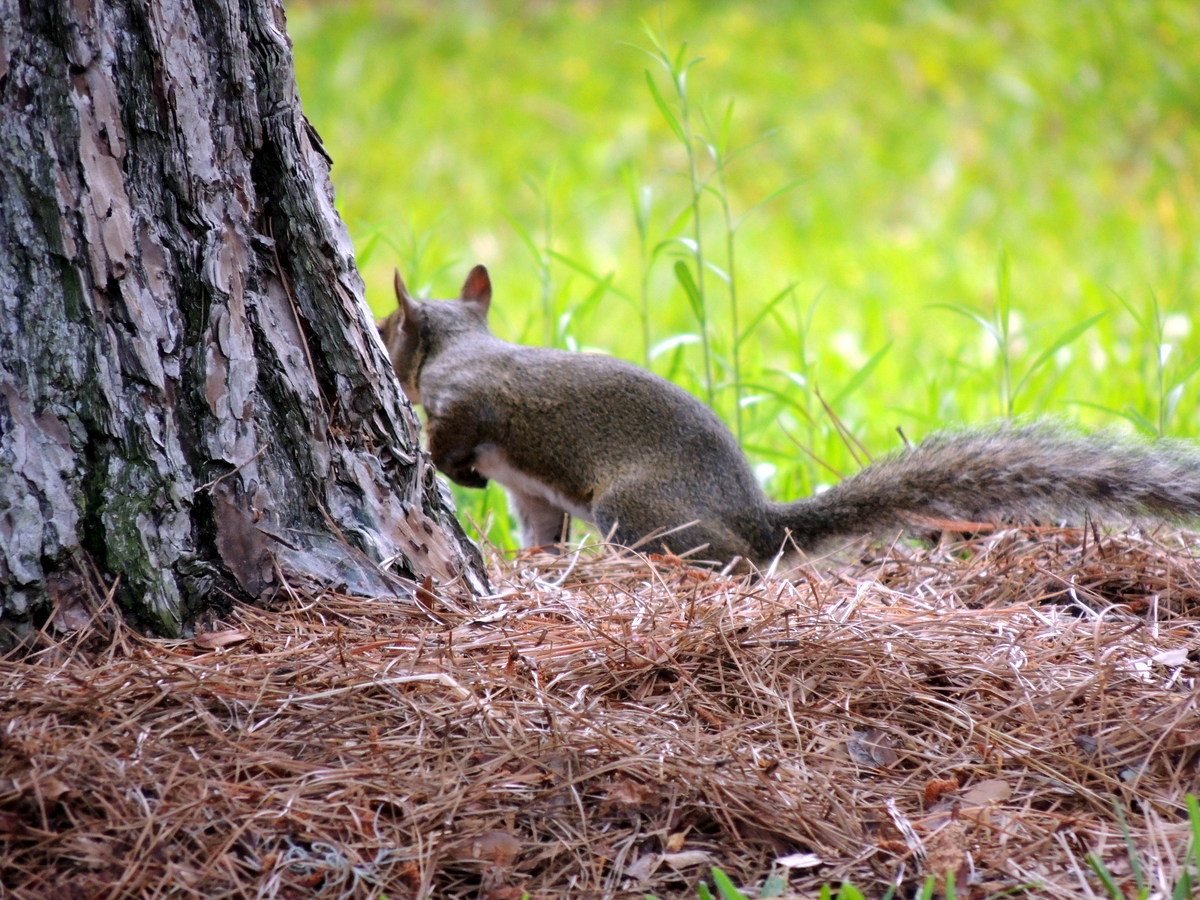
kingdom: Animalia
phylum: Chordata
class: Mammalia
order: Rodentia
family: Sciuridae
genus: Sciurus
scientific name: Sciurus carolinensis
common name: Eastern gray squirrel
